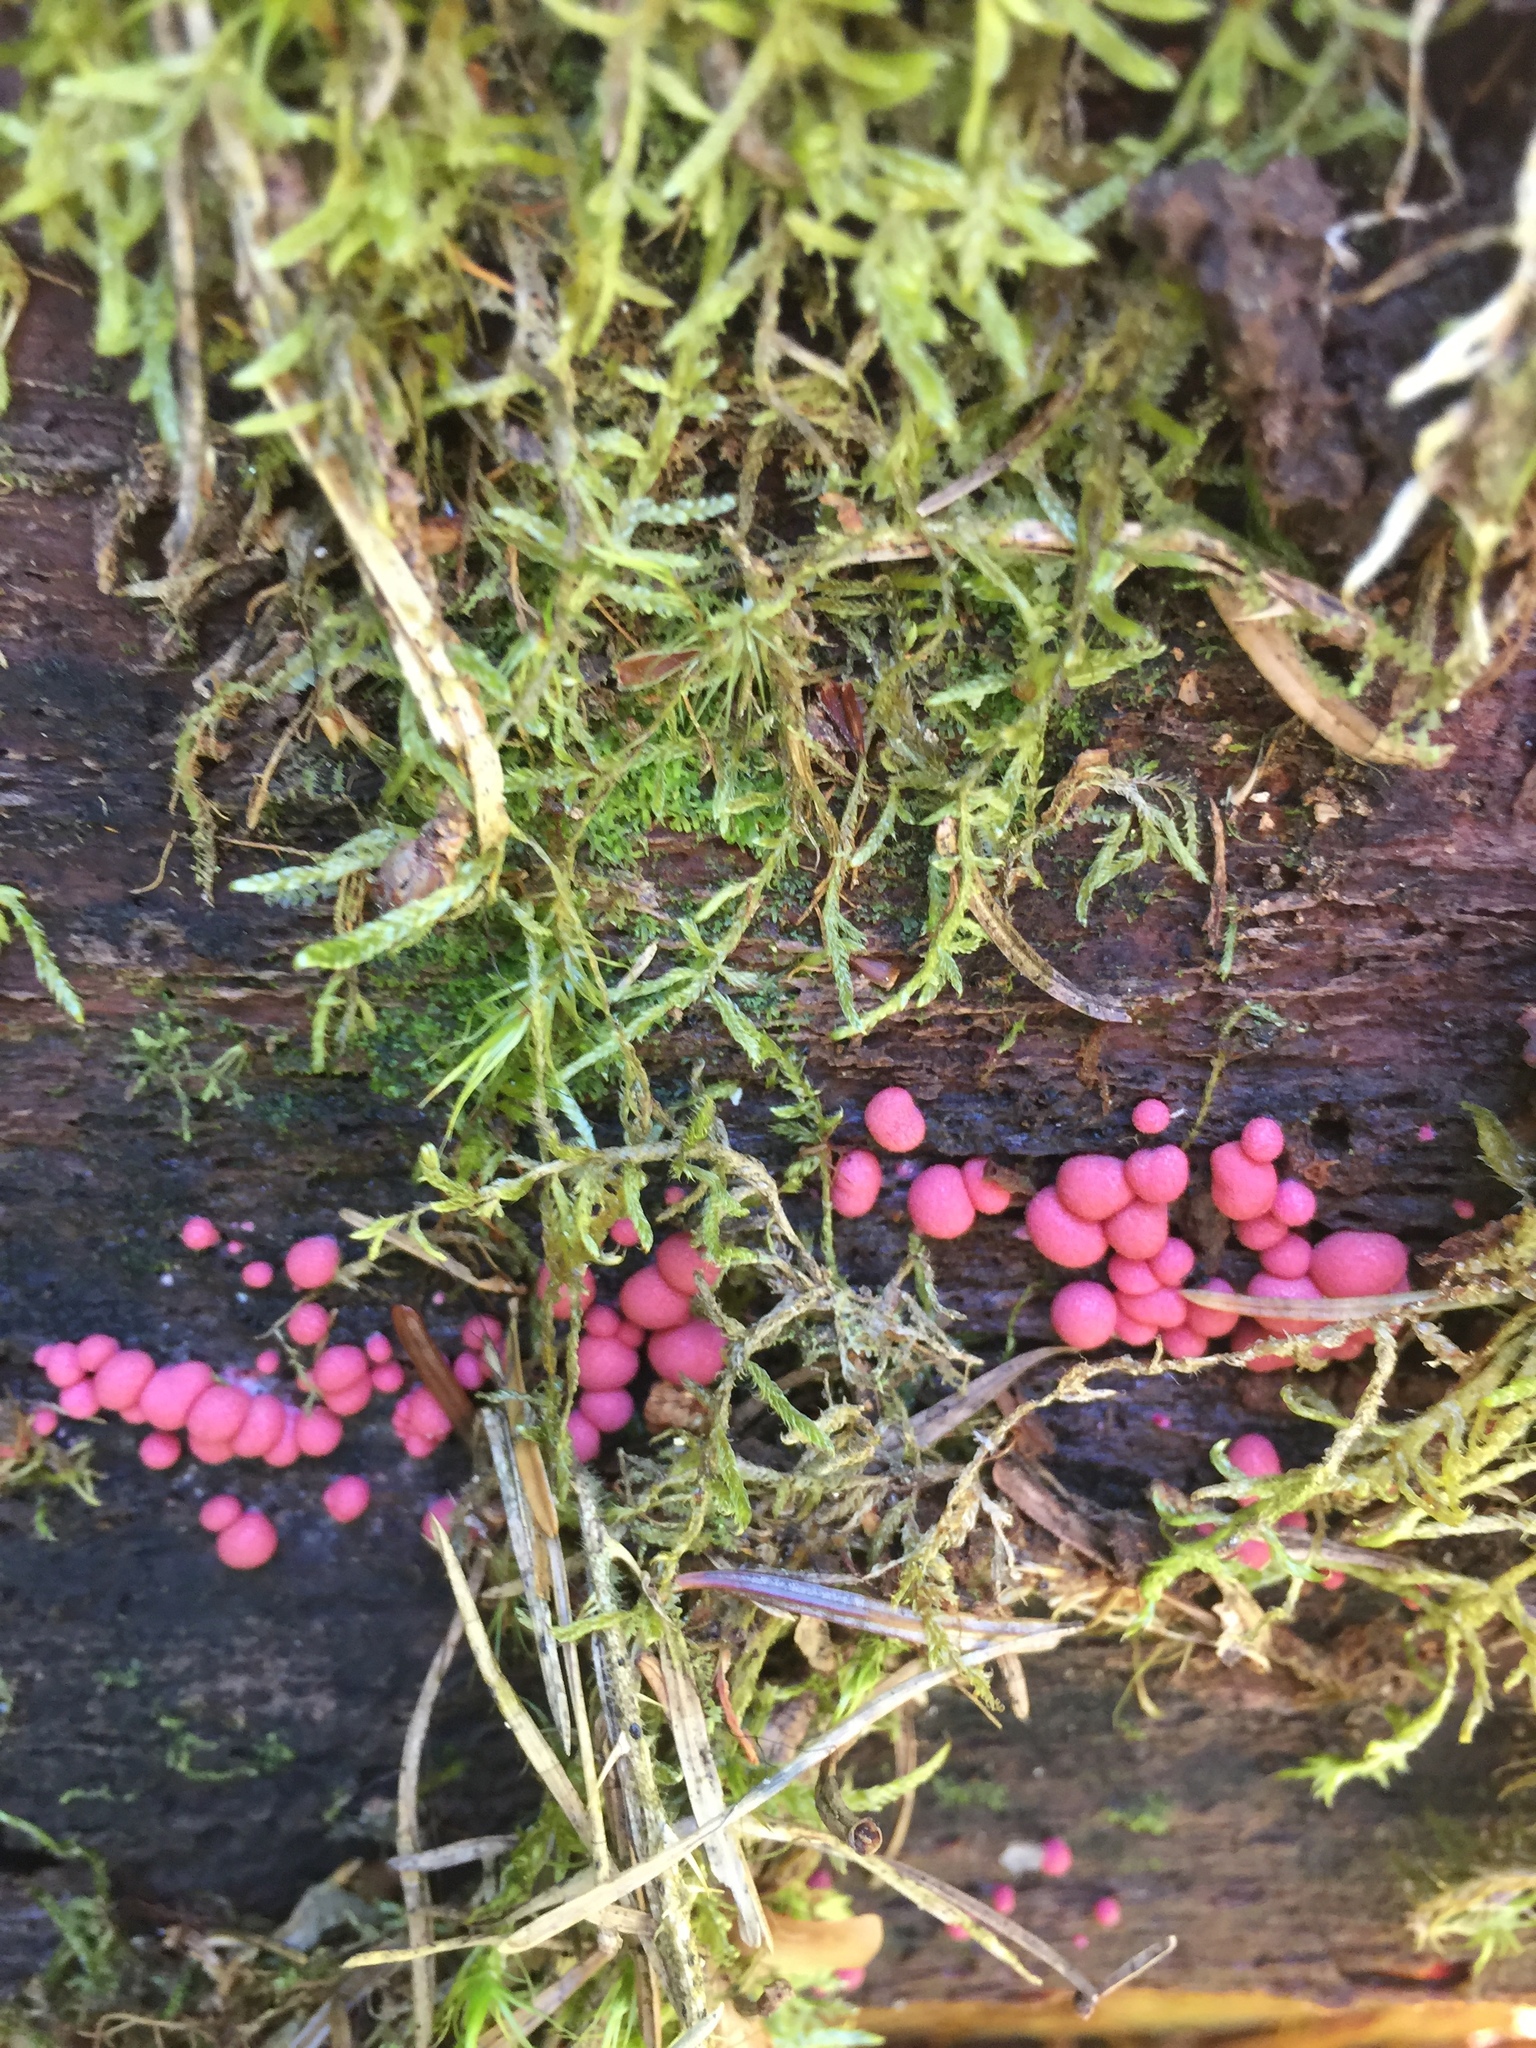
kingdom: Protozoa
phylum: Mycetozoa
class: Myxomycetes
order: Cribrariales
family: Tubiferaceae
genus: Lycogala
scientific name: Lycogala epidendrum
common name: Wolf's milk
